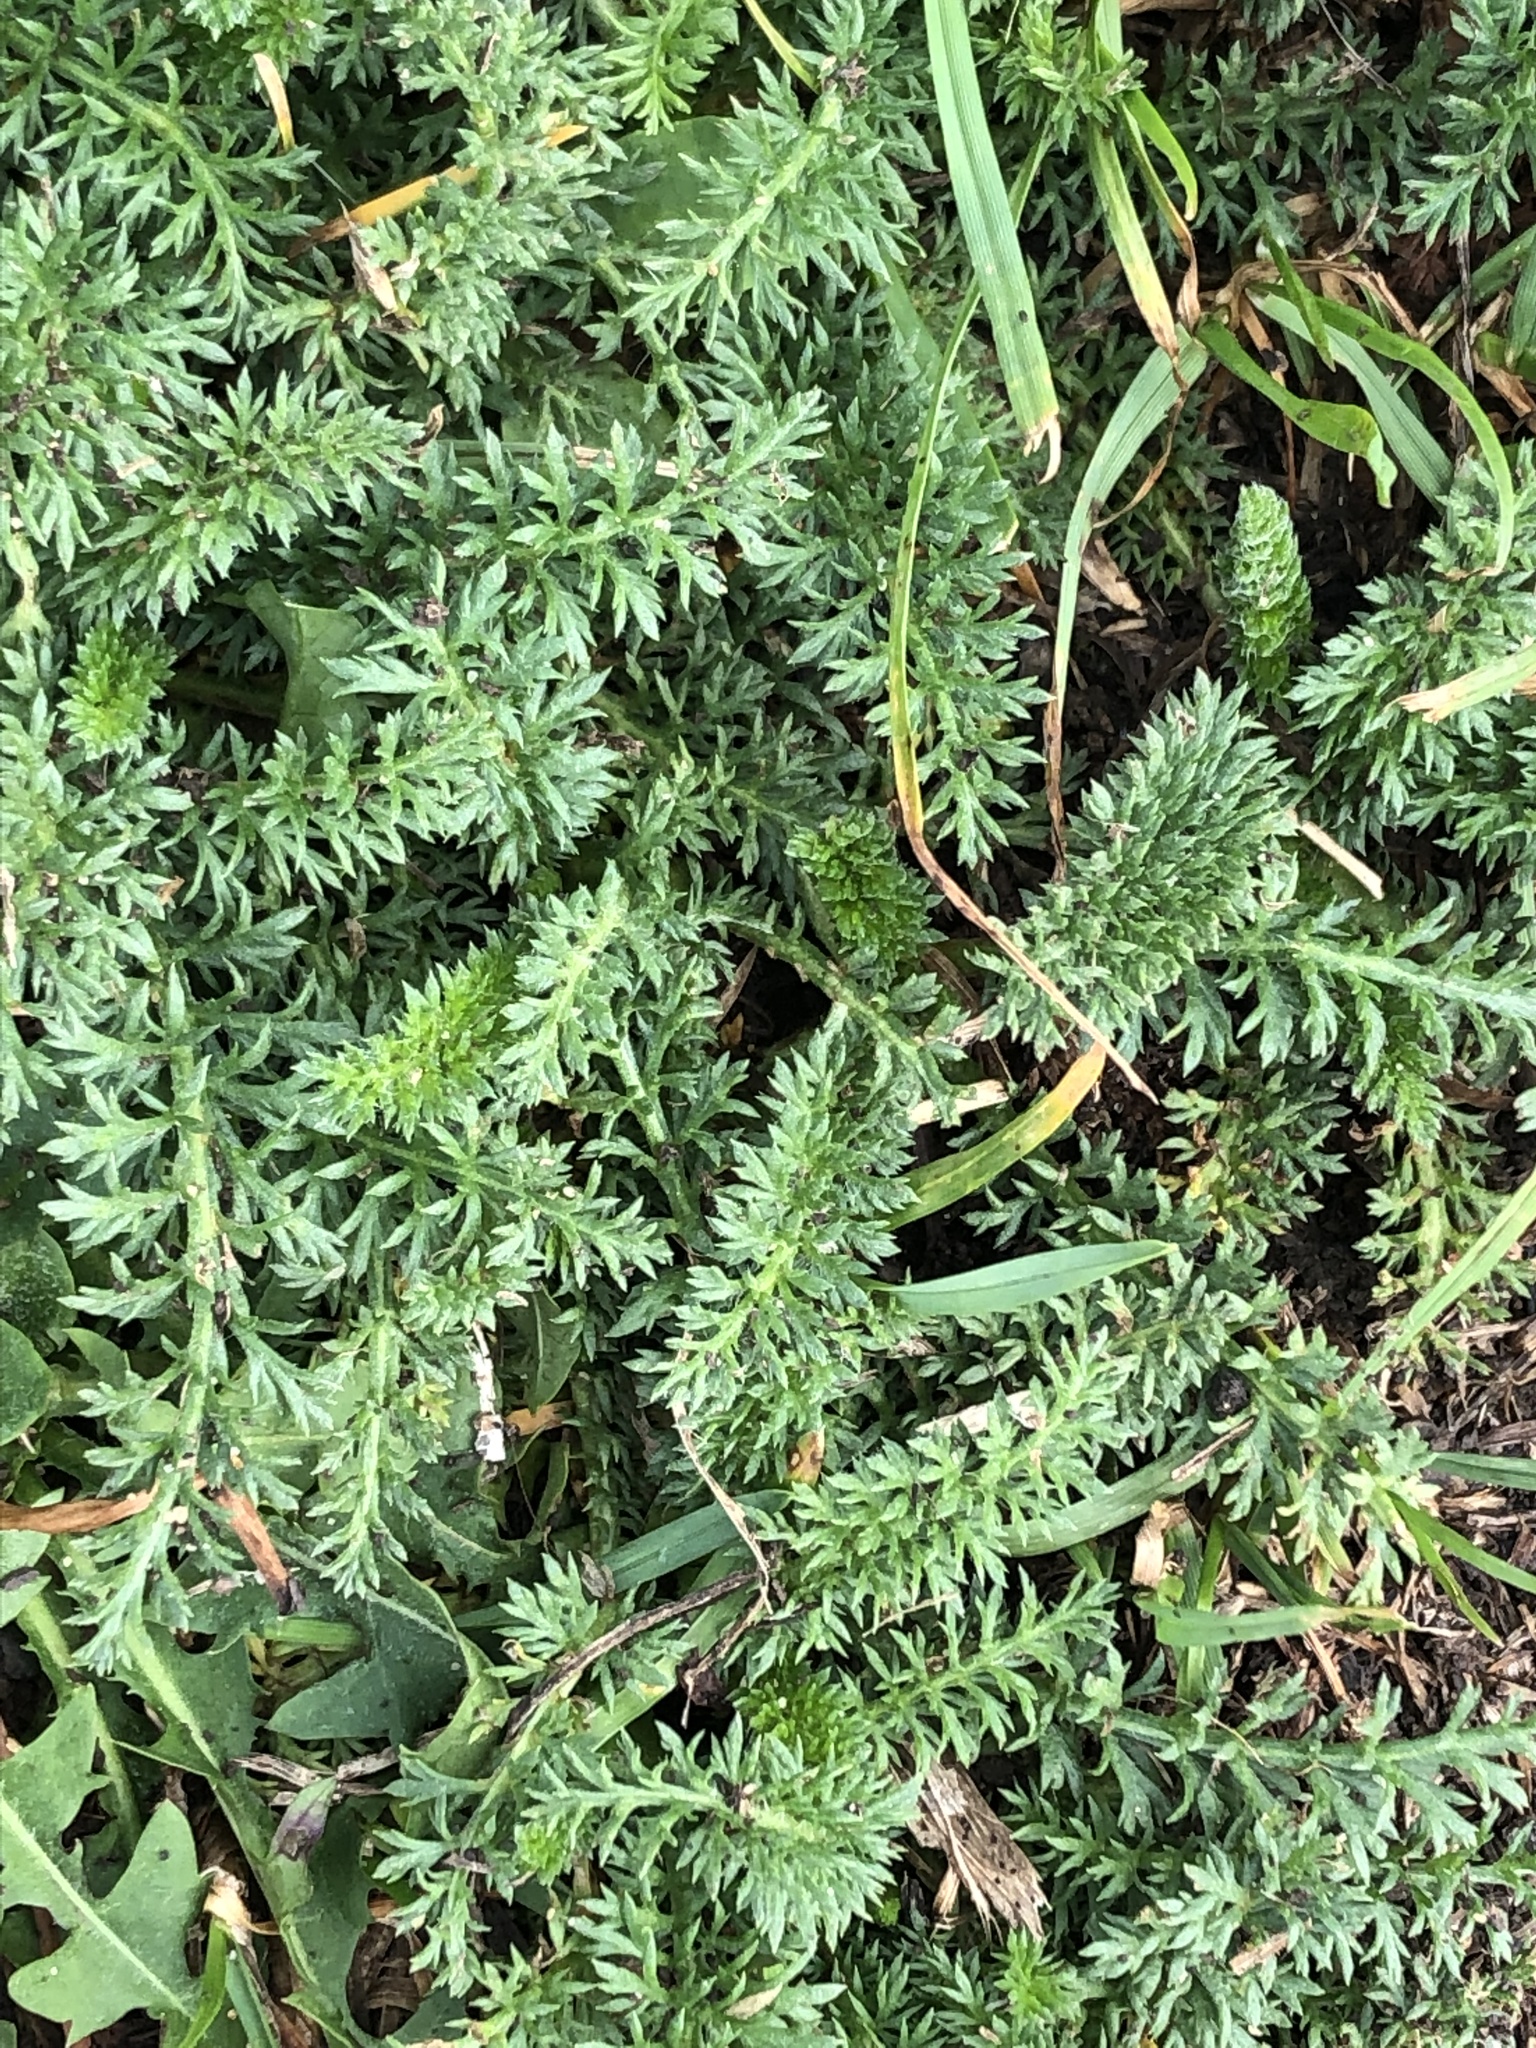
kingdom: Plantae
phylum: Tracheophyta
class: Magnoliopsida
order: Asterales
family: Asteraceae
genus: Achillea
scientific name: Achillea millefolium
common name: Yarrow
